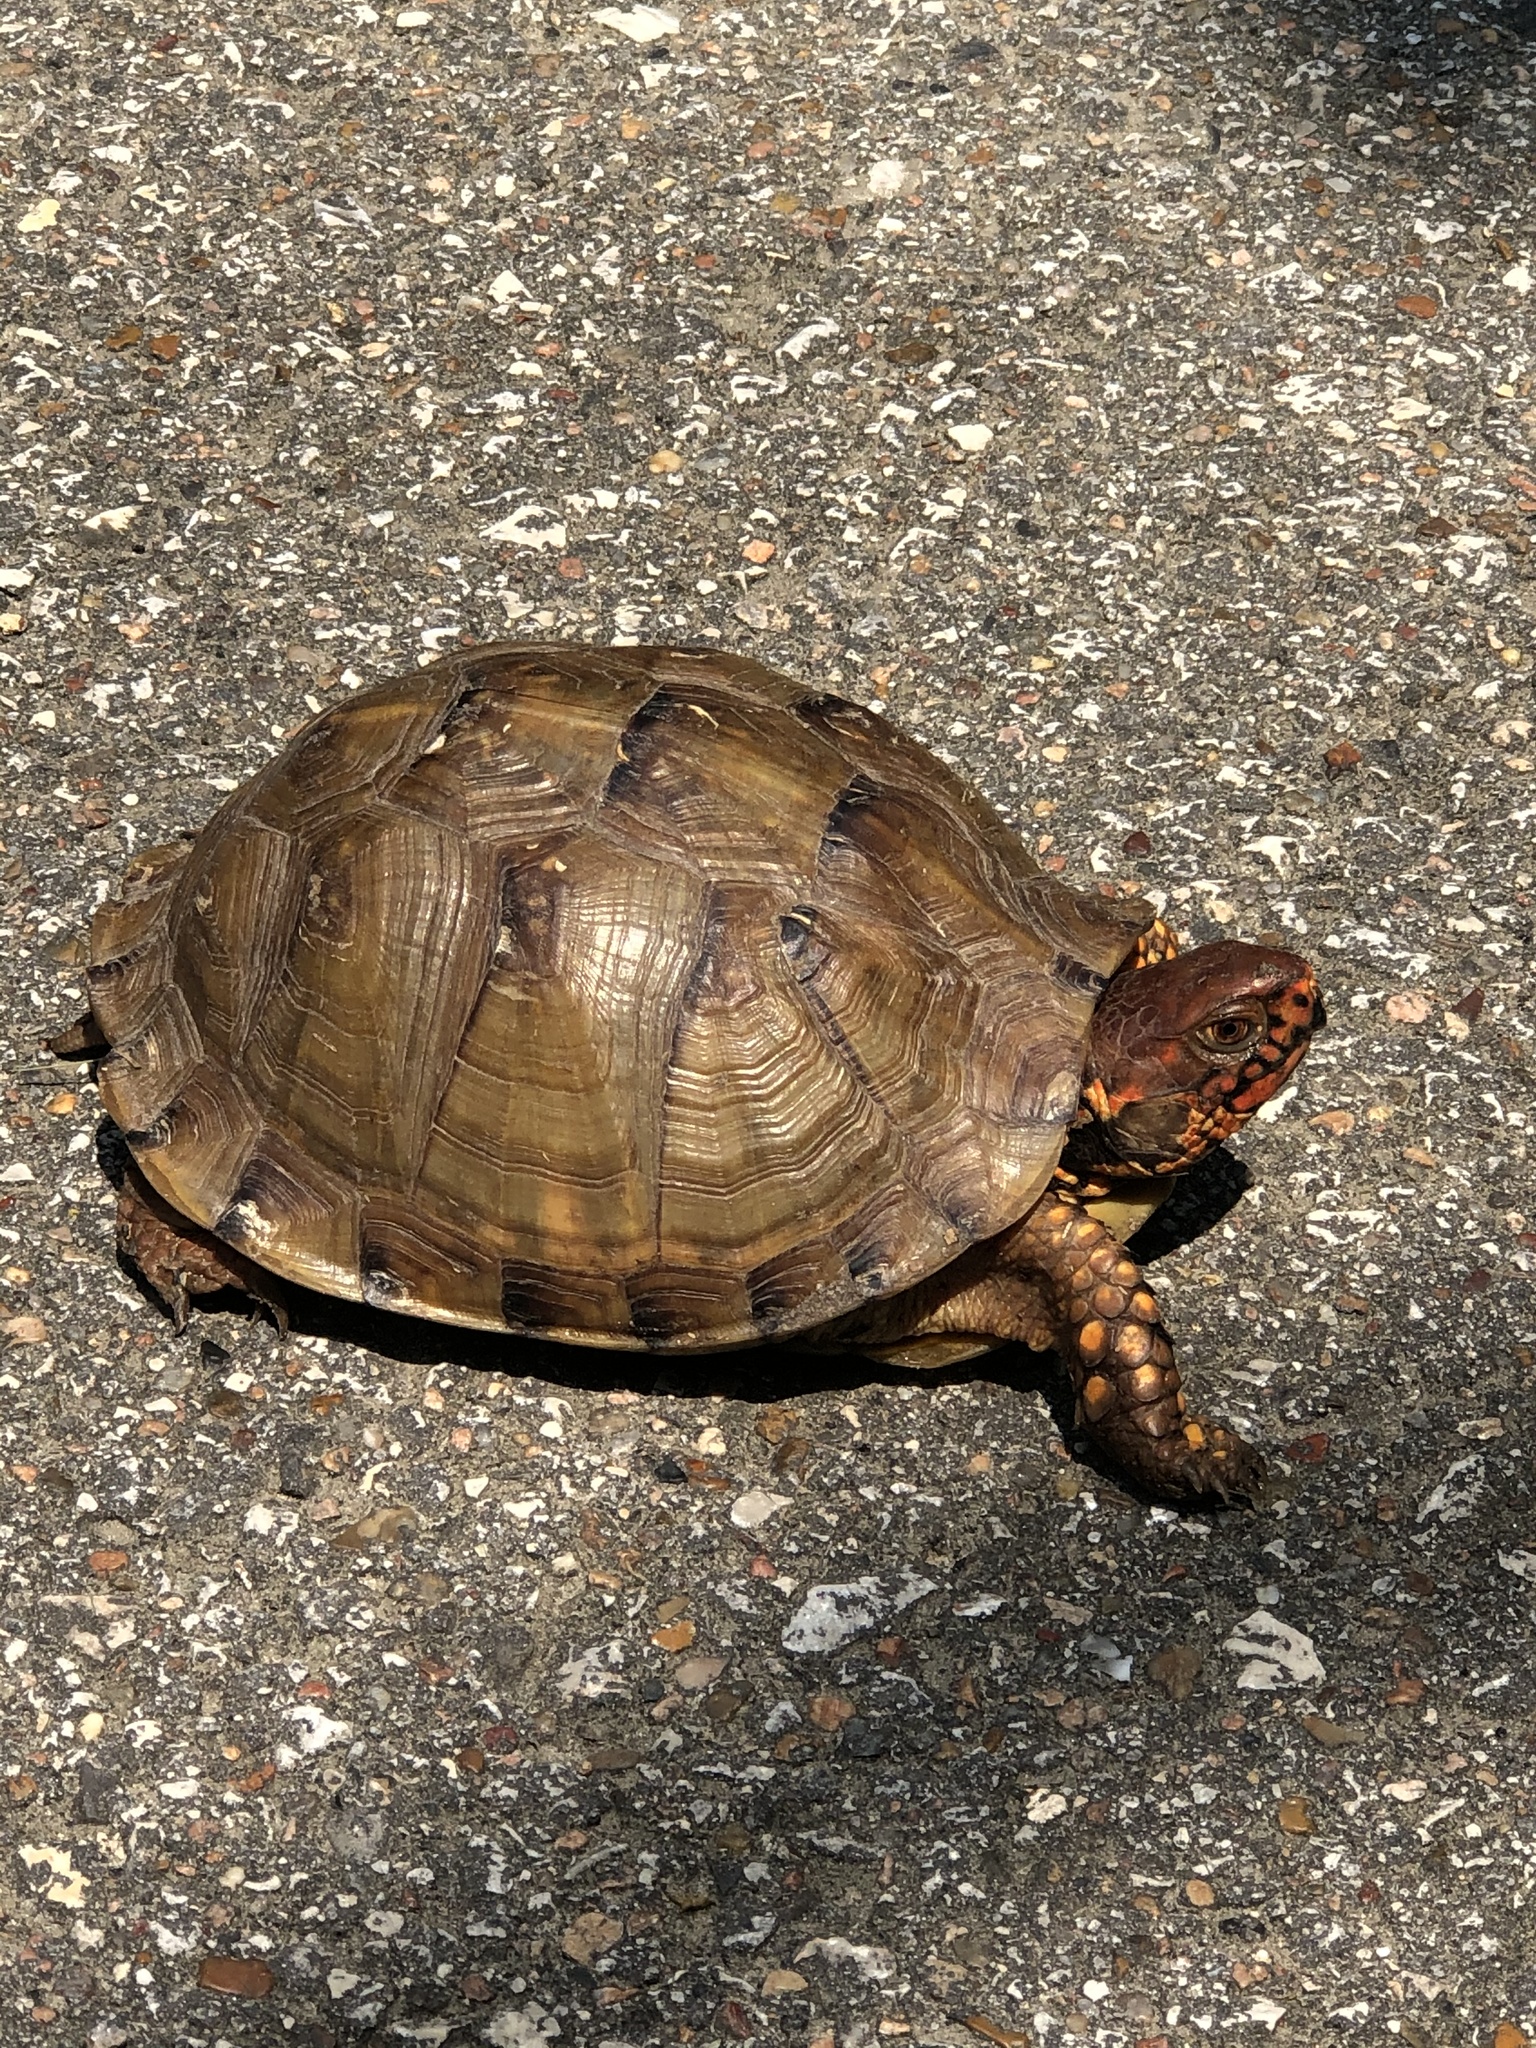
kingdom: Animalia
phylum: Chordata
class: Testudines
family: Emydidae
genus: Terrapene
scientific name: Terrapene carolina
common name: Common box turtle
